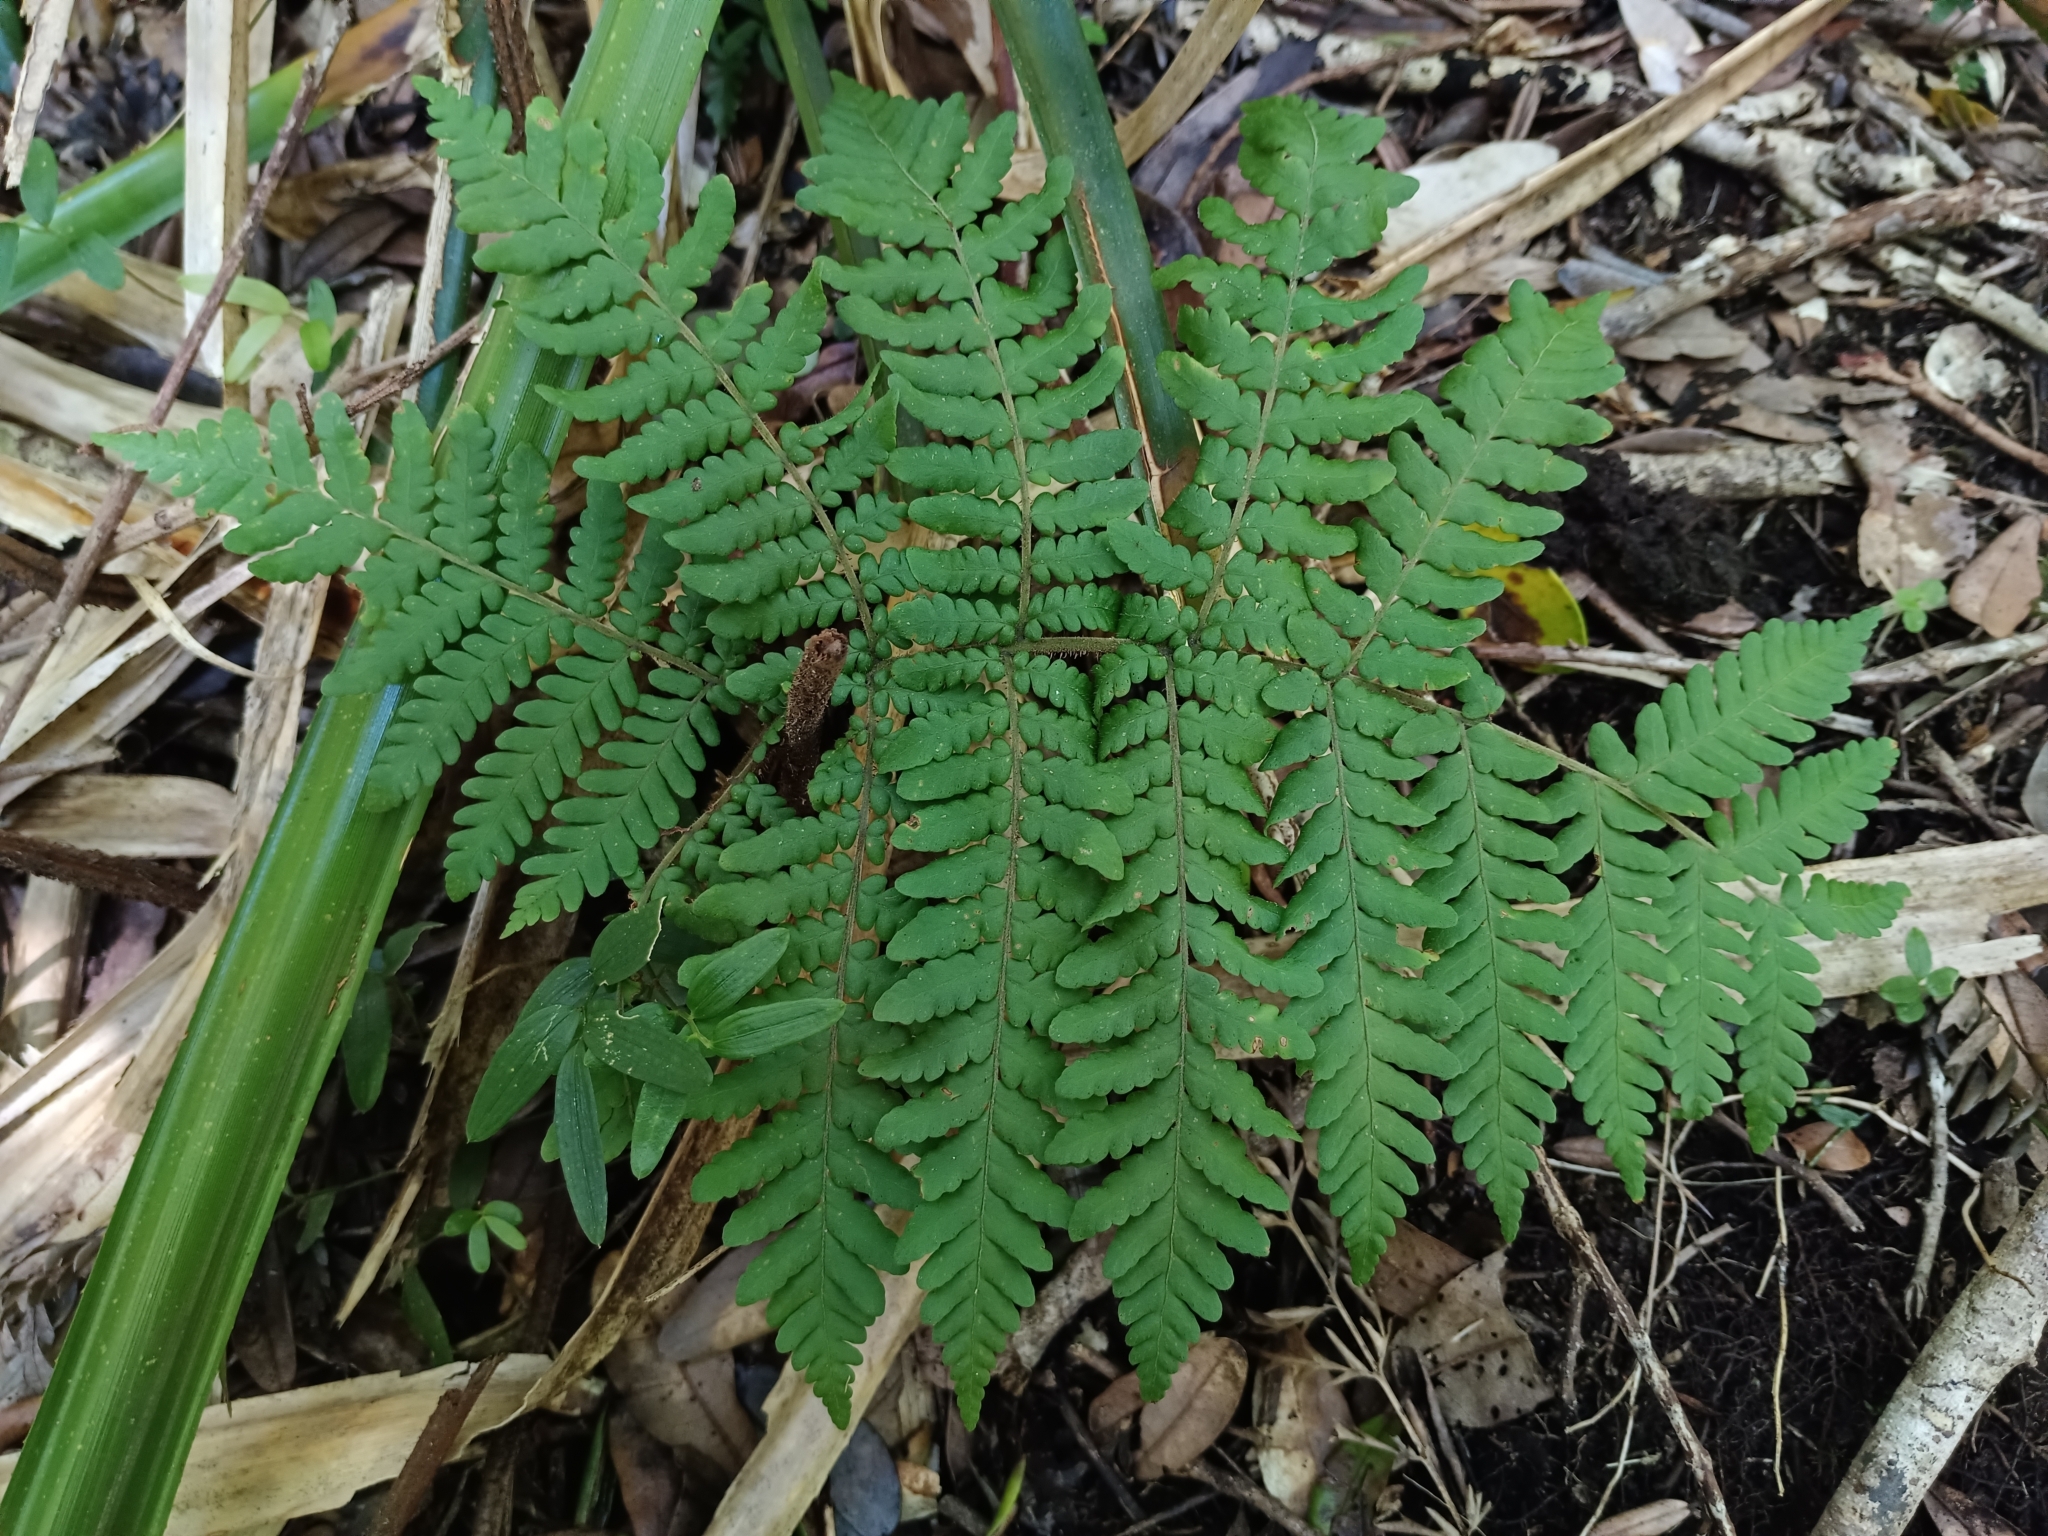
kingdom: Plantae
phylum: Tracheophyta
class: Polypodiopsida
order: Polypodiales
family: Dryopteridaceae
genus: Megalastrum
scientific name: Megalastrum spectabile
